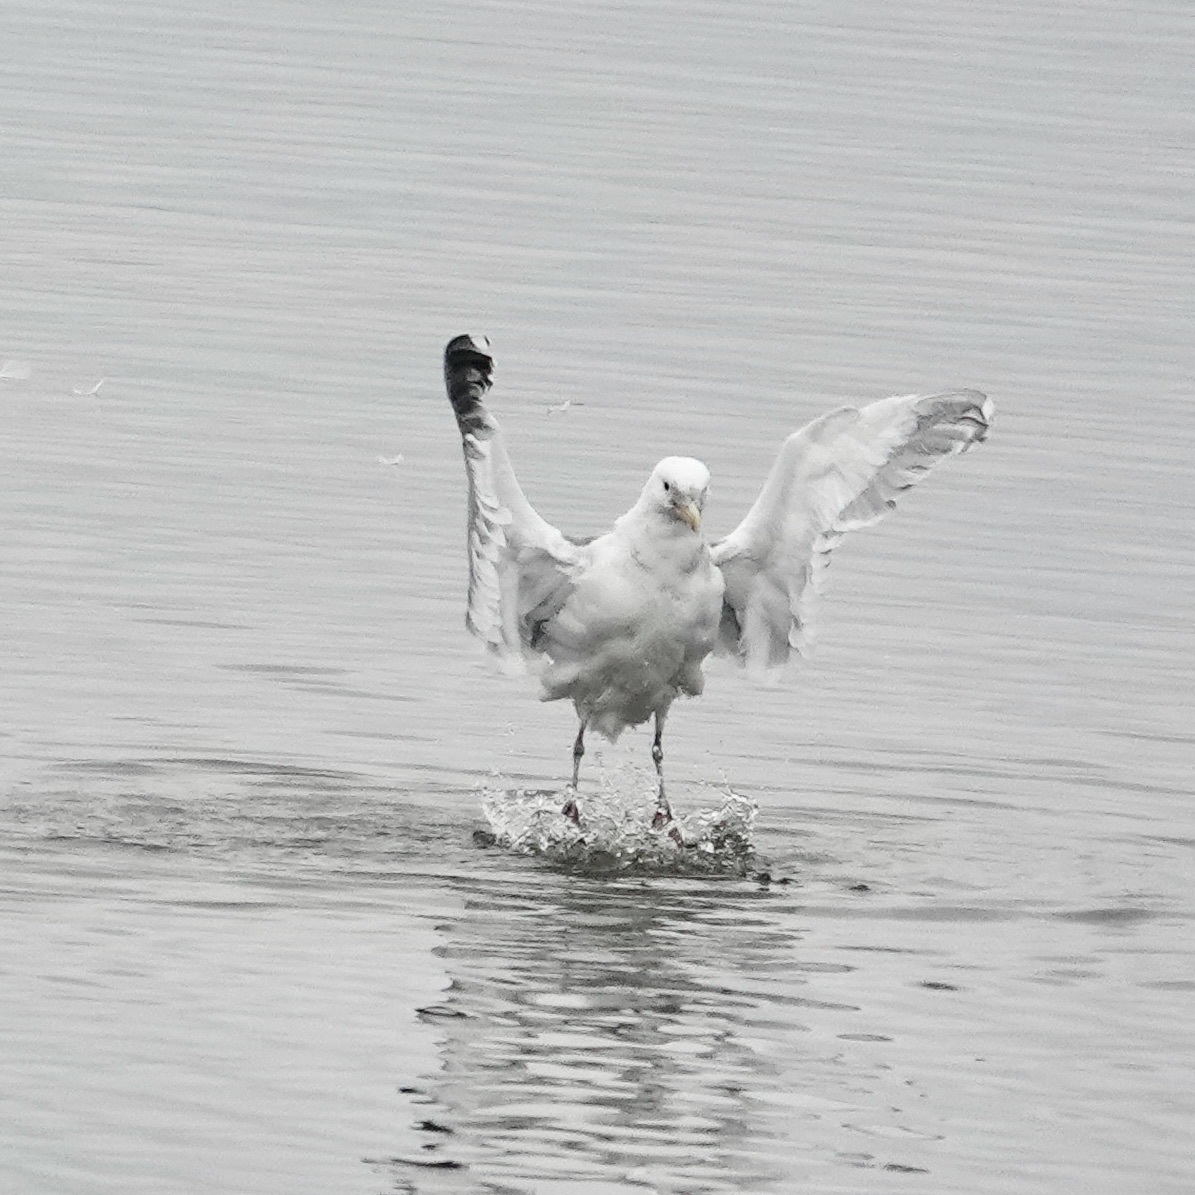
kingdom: Animalia
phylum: Chordata
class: Aves
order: Charadriiformes
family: Laridae
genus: Larus
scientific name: Larus glaucescens
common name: Glaucous-winged gull
